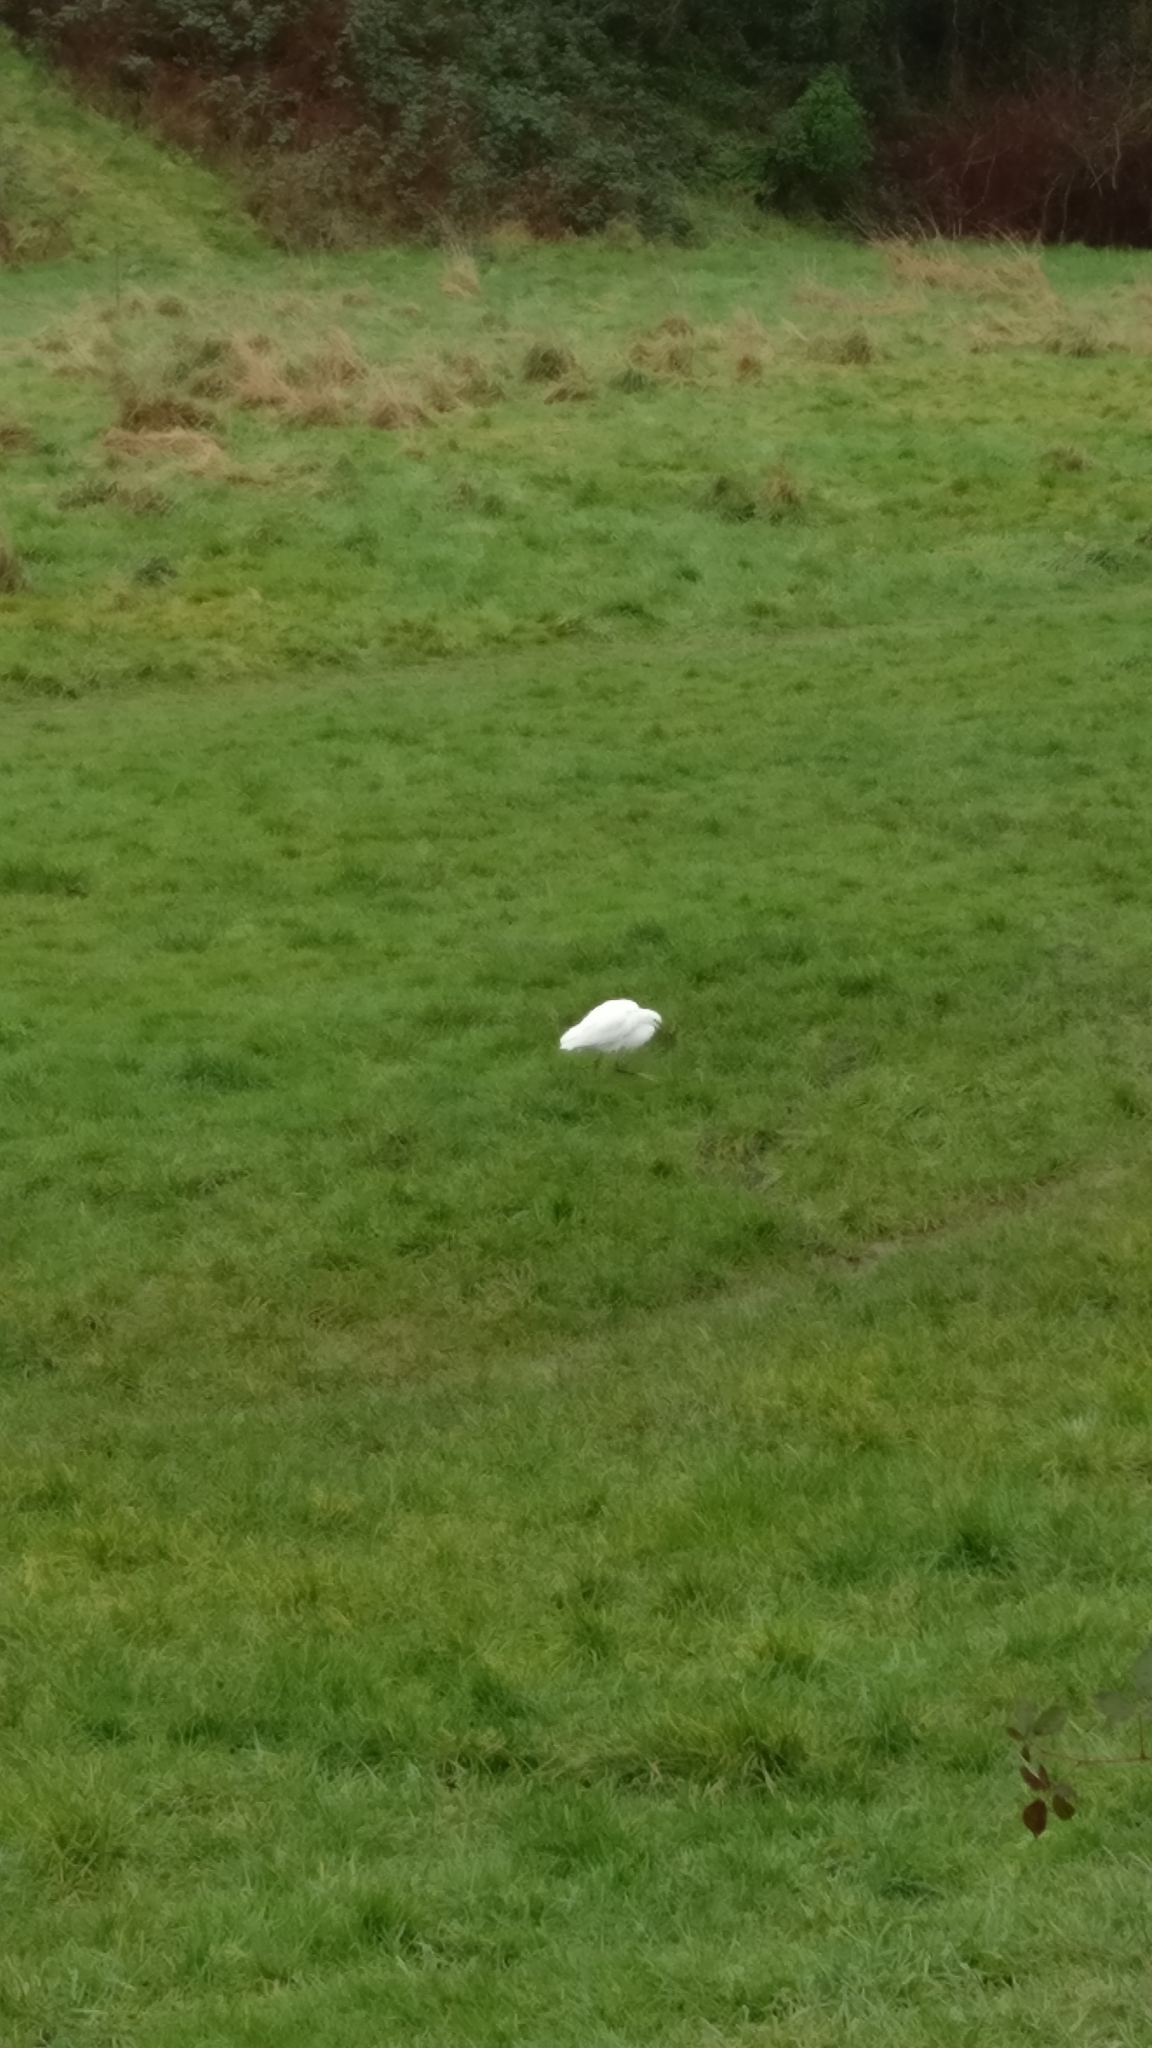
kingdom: Animalia
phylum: Chordata
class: Aves
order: Pelecaniformes
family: Ardeidae
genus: Egretta
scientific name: Egretta garzetta
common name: Little egret
